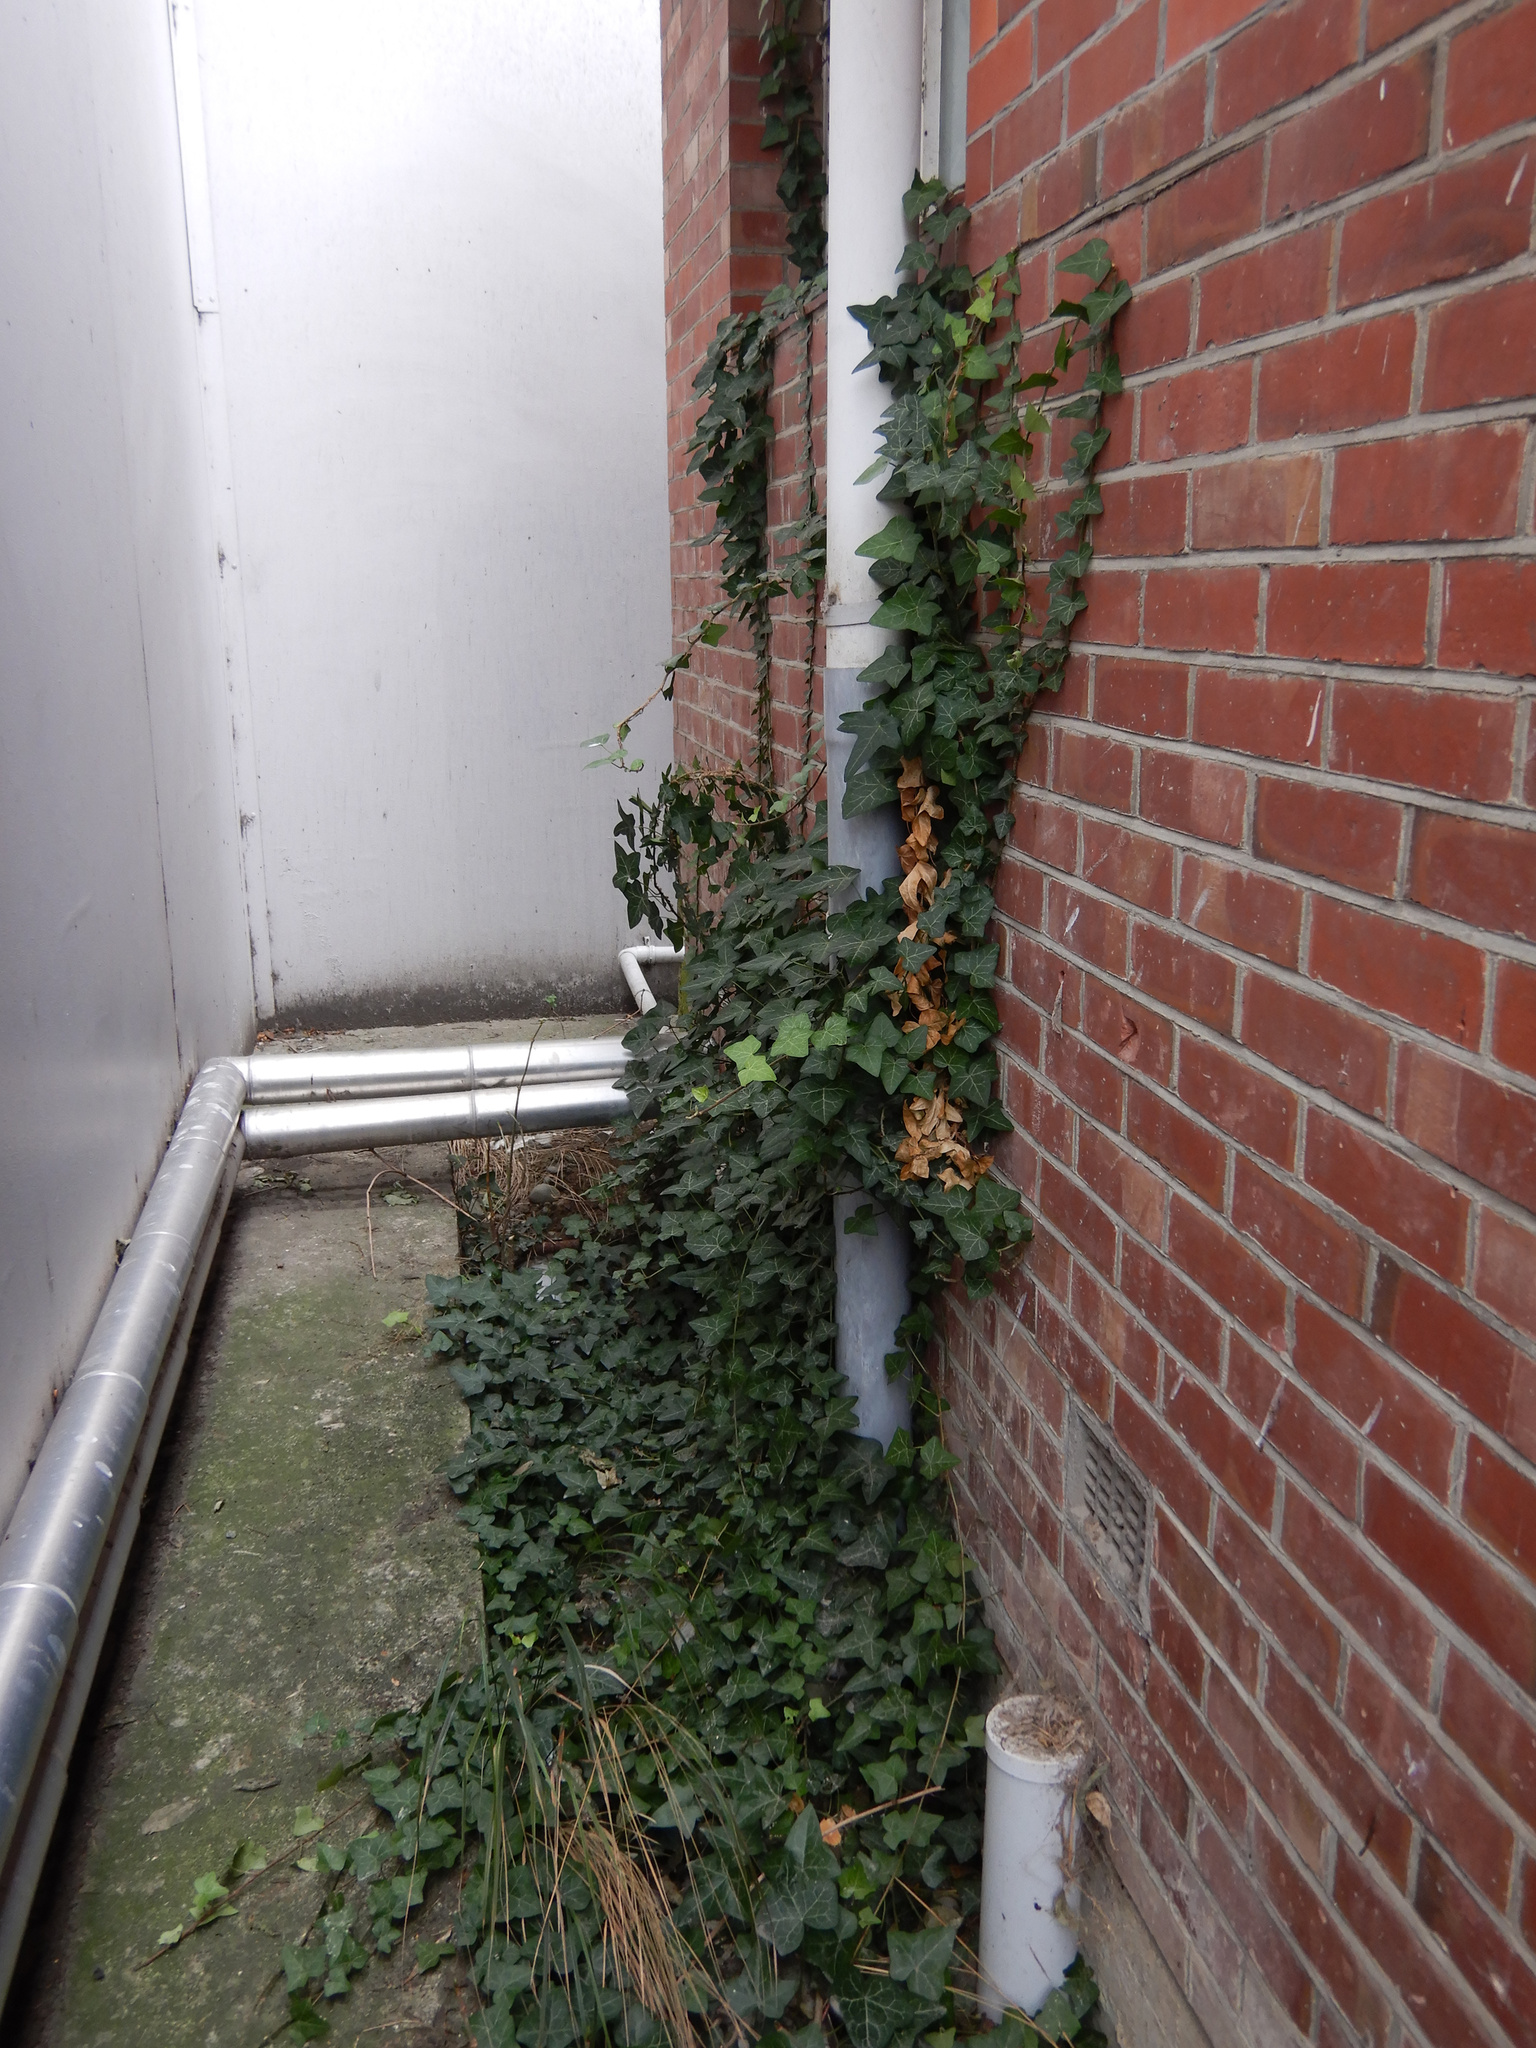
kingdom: Plantae
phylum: Tracheophyta
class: Magnoliopsida
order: Apiales
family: Araliaceae
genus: Hedera
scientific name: Hedera helix
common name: Ivy
